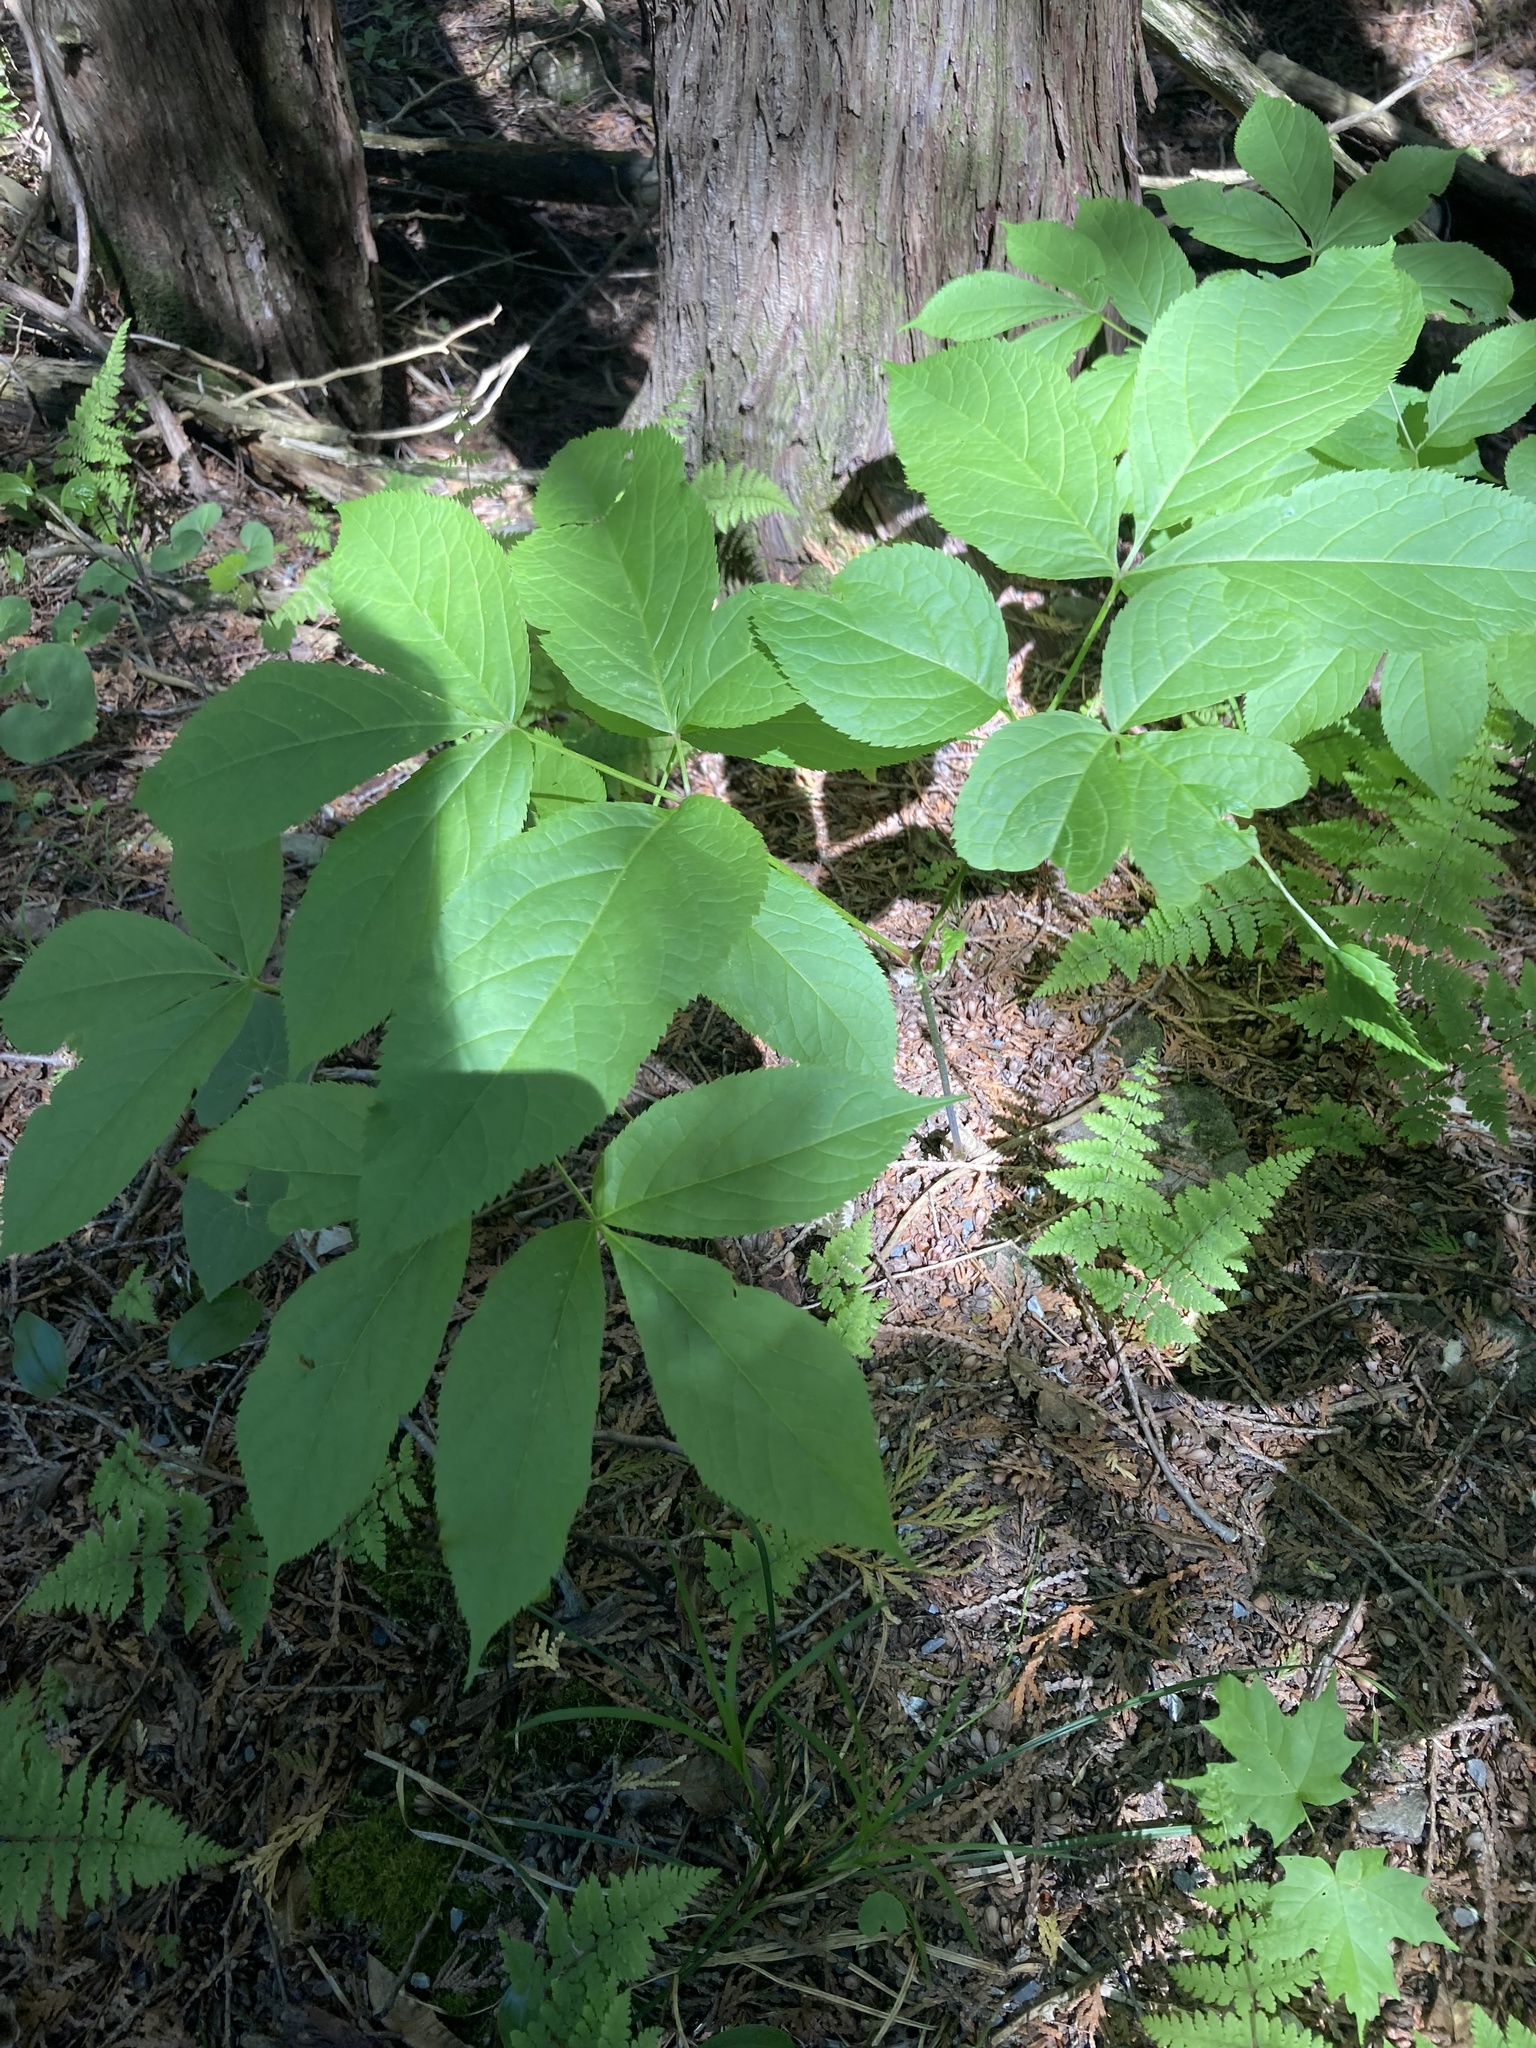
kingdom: Plantae
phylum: Tracheophyta
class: Magnoliopsida
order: Apiales
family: Araliaceae
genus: Aralia
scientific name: Aralia nudicaulis
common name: Wild sarsaparilla
